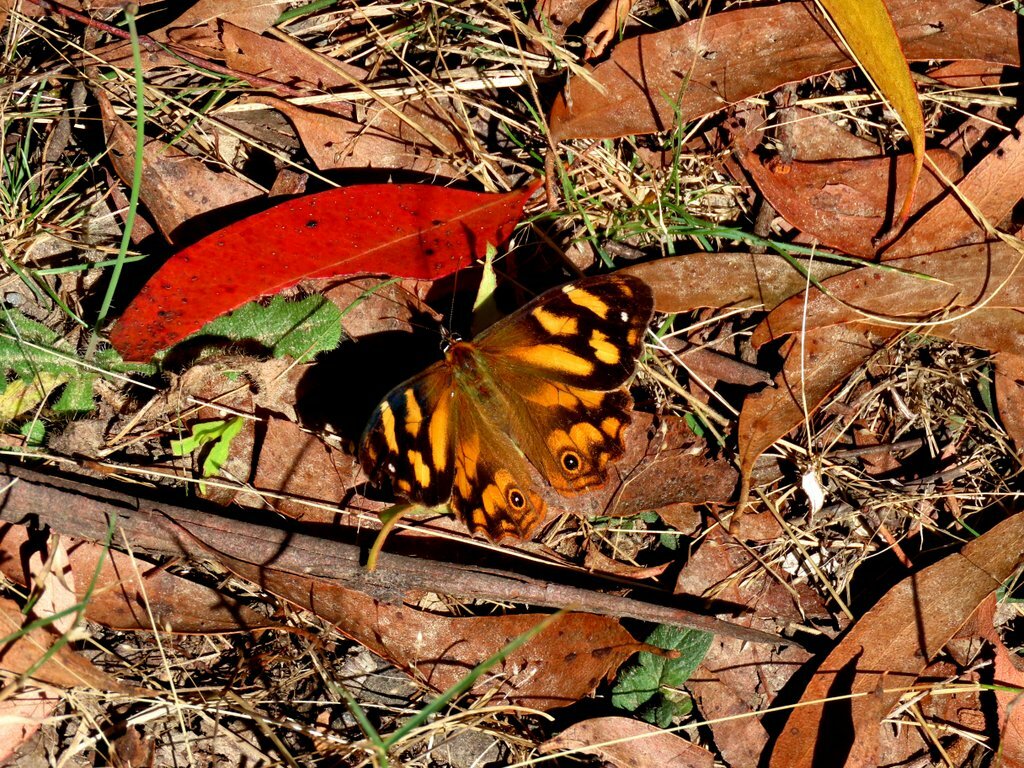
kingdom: Animalia
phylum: Arthropoda
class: Insecta
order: Lepidoptera
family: Nymphalidae
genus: Heteronympha
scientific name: Heteronympha banksii
